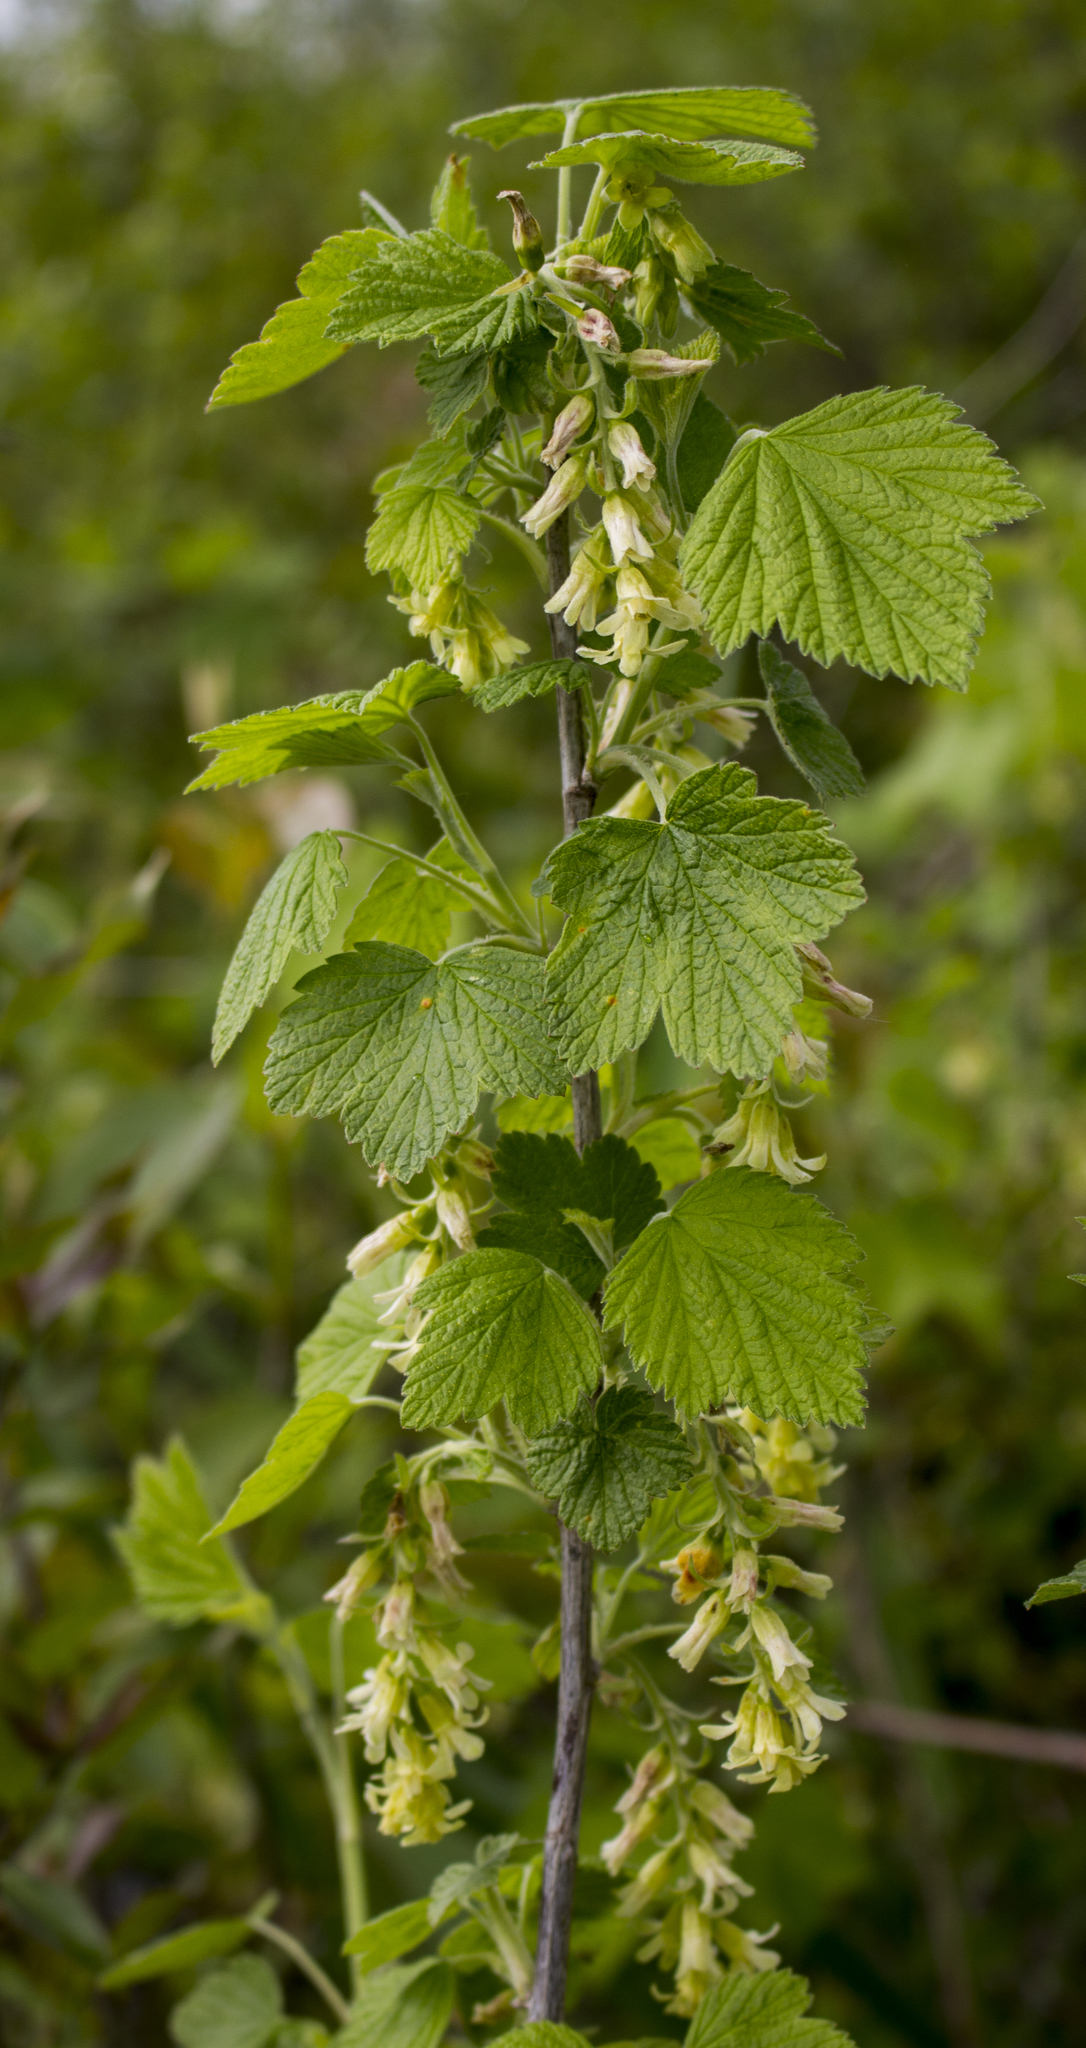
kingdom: Plantae
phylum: Tracheophyta
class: Magnoliopsida
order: Saxifragales
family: Grossulariaceae
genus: Ribes
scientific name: Ribes americanum
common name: American black currant
